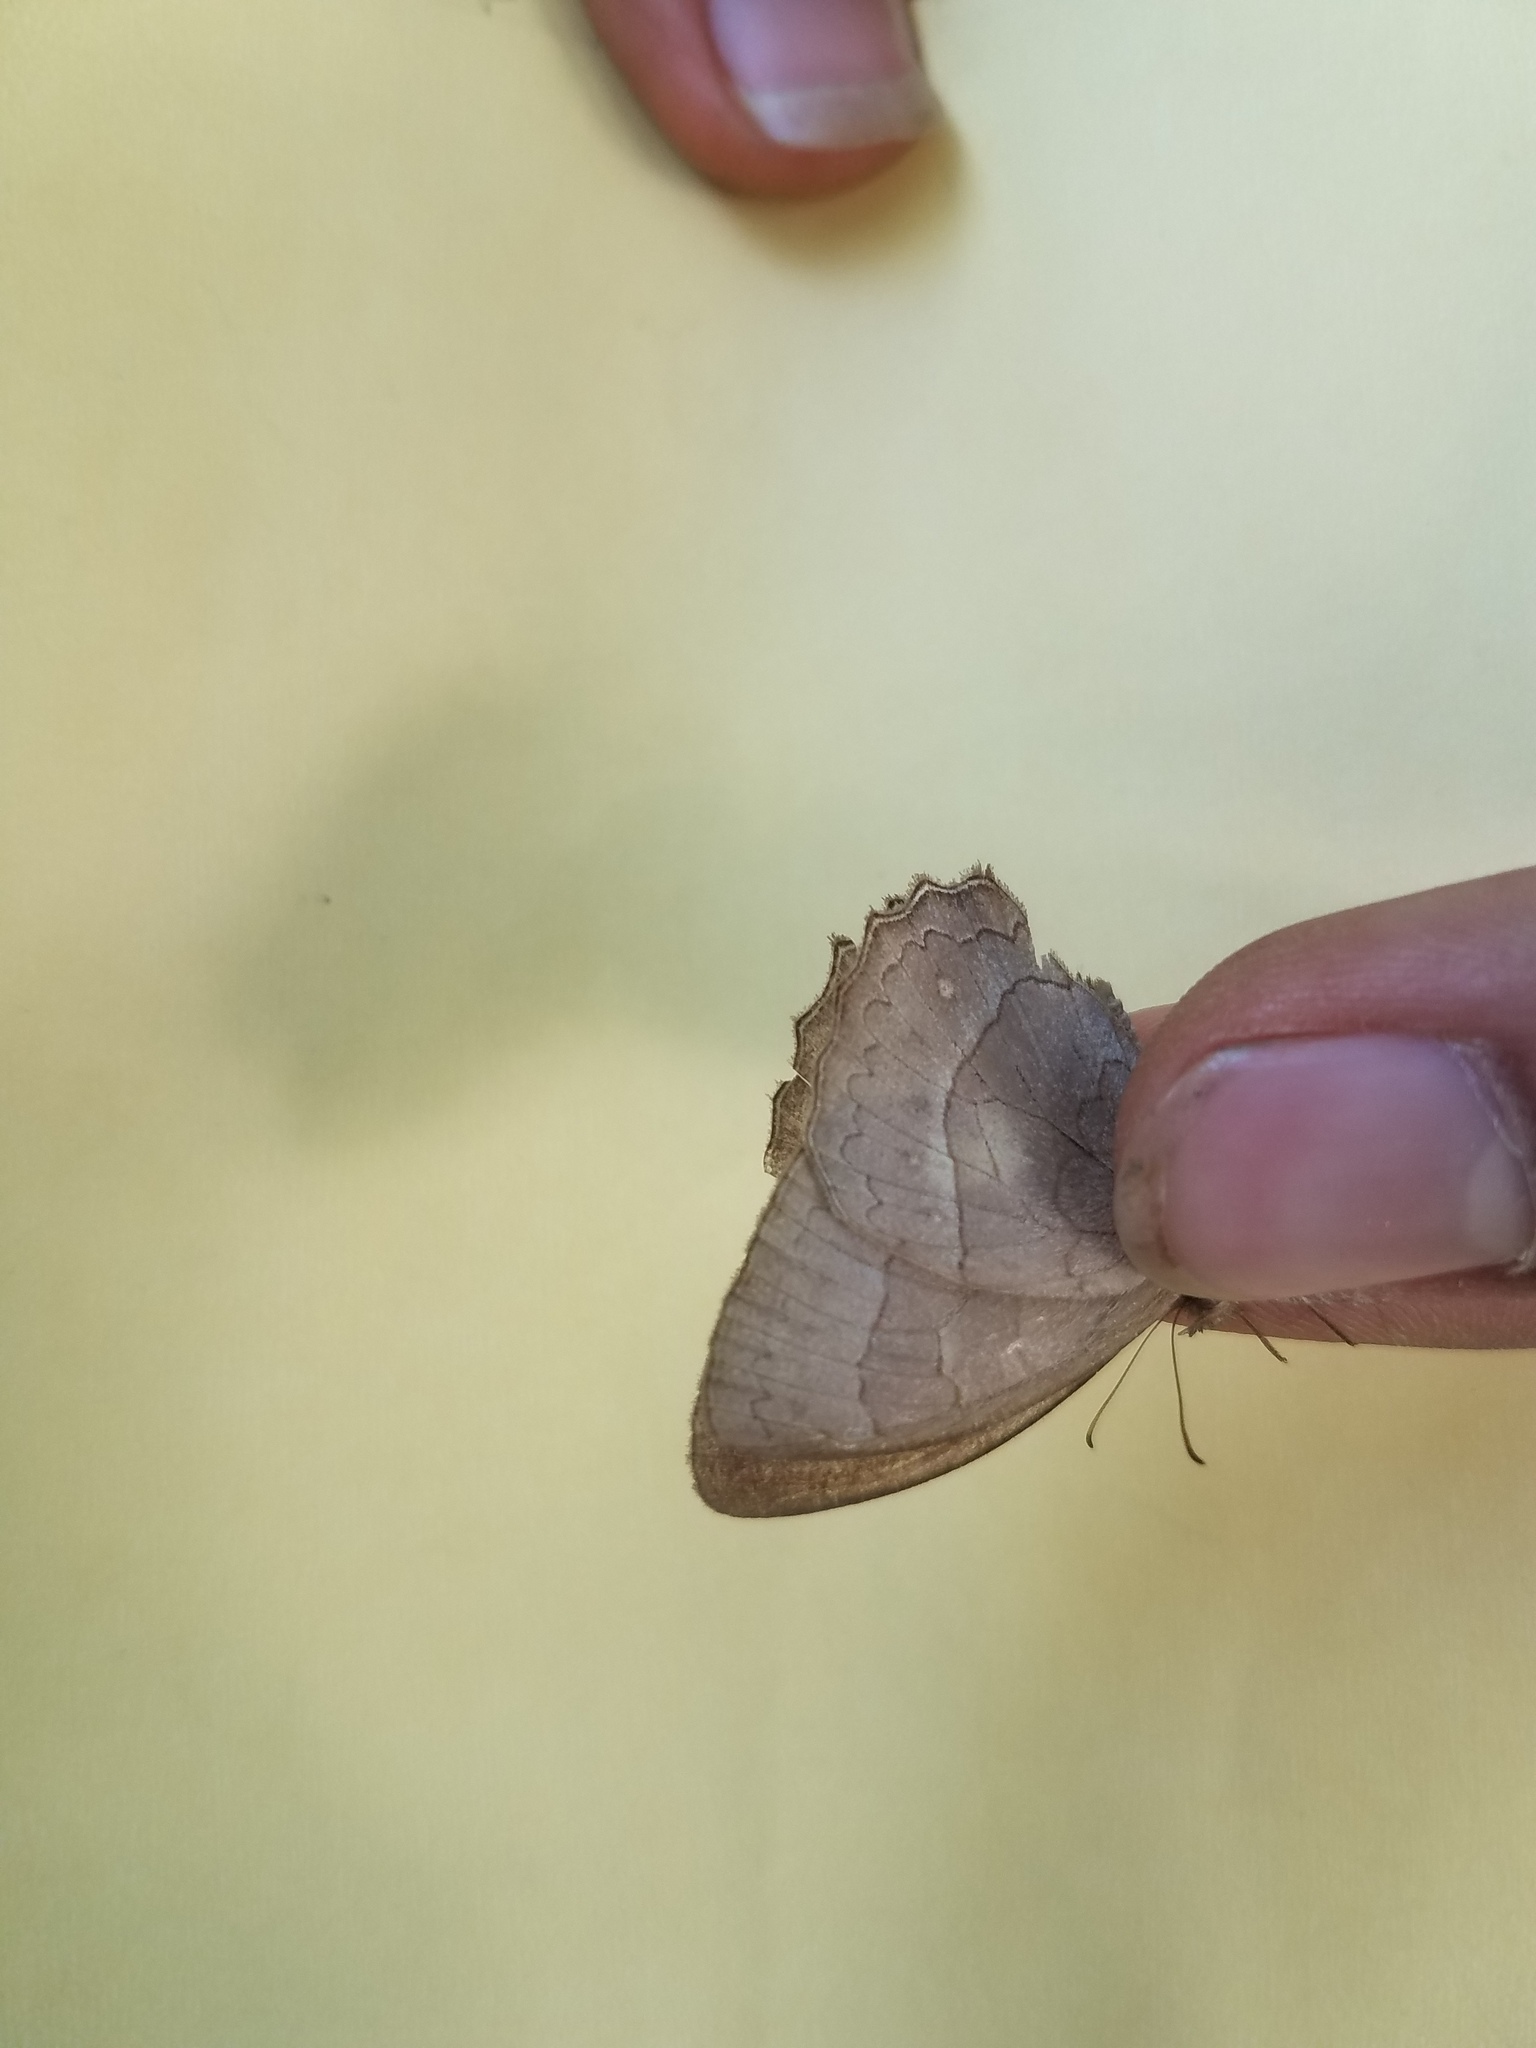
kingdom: Animalia
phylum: Arthropoda
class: Insecta
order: Lepidoptera
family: Nymphalidae
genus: Taygetina
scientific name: Taygetina kerea
